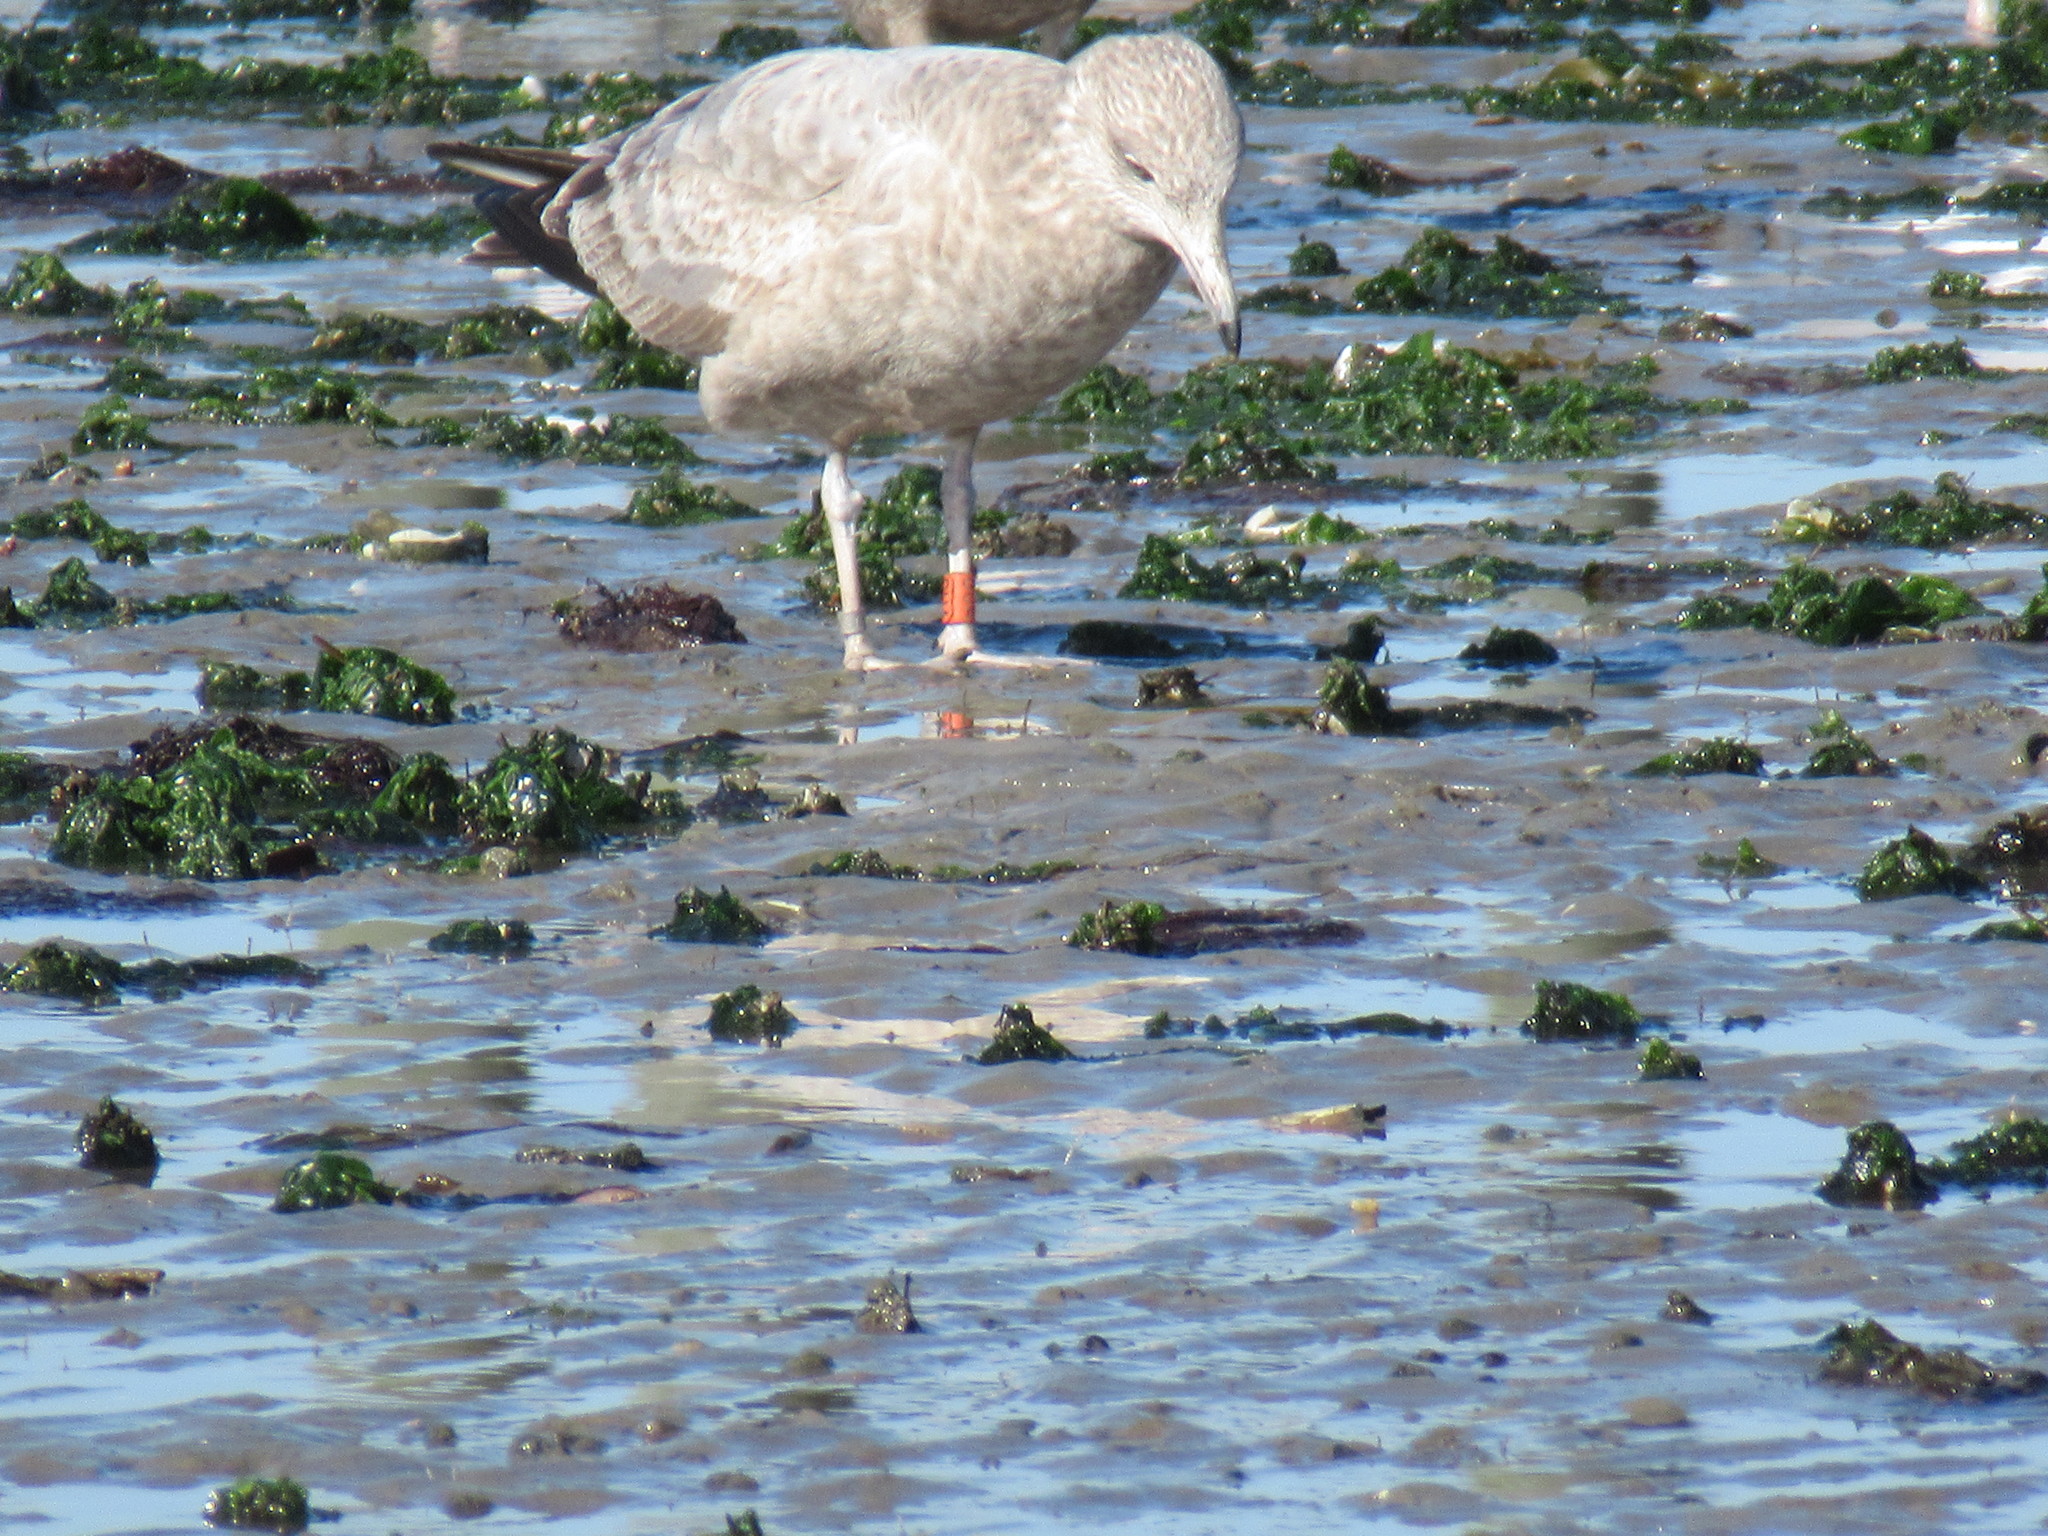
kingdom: Animalia
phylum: Chordata
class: Aves
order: Charadriiformes
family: Laridae
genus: Larus
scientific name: Larus argentatus
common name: Herring gull
